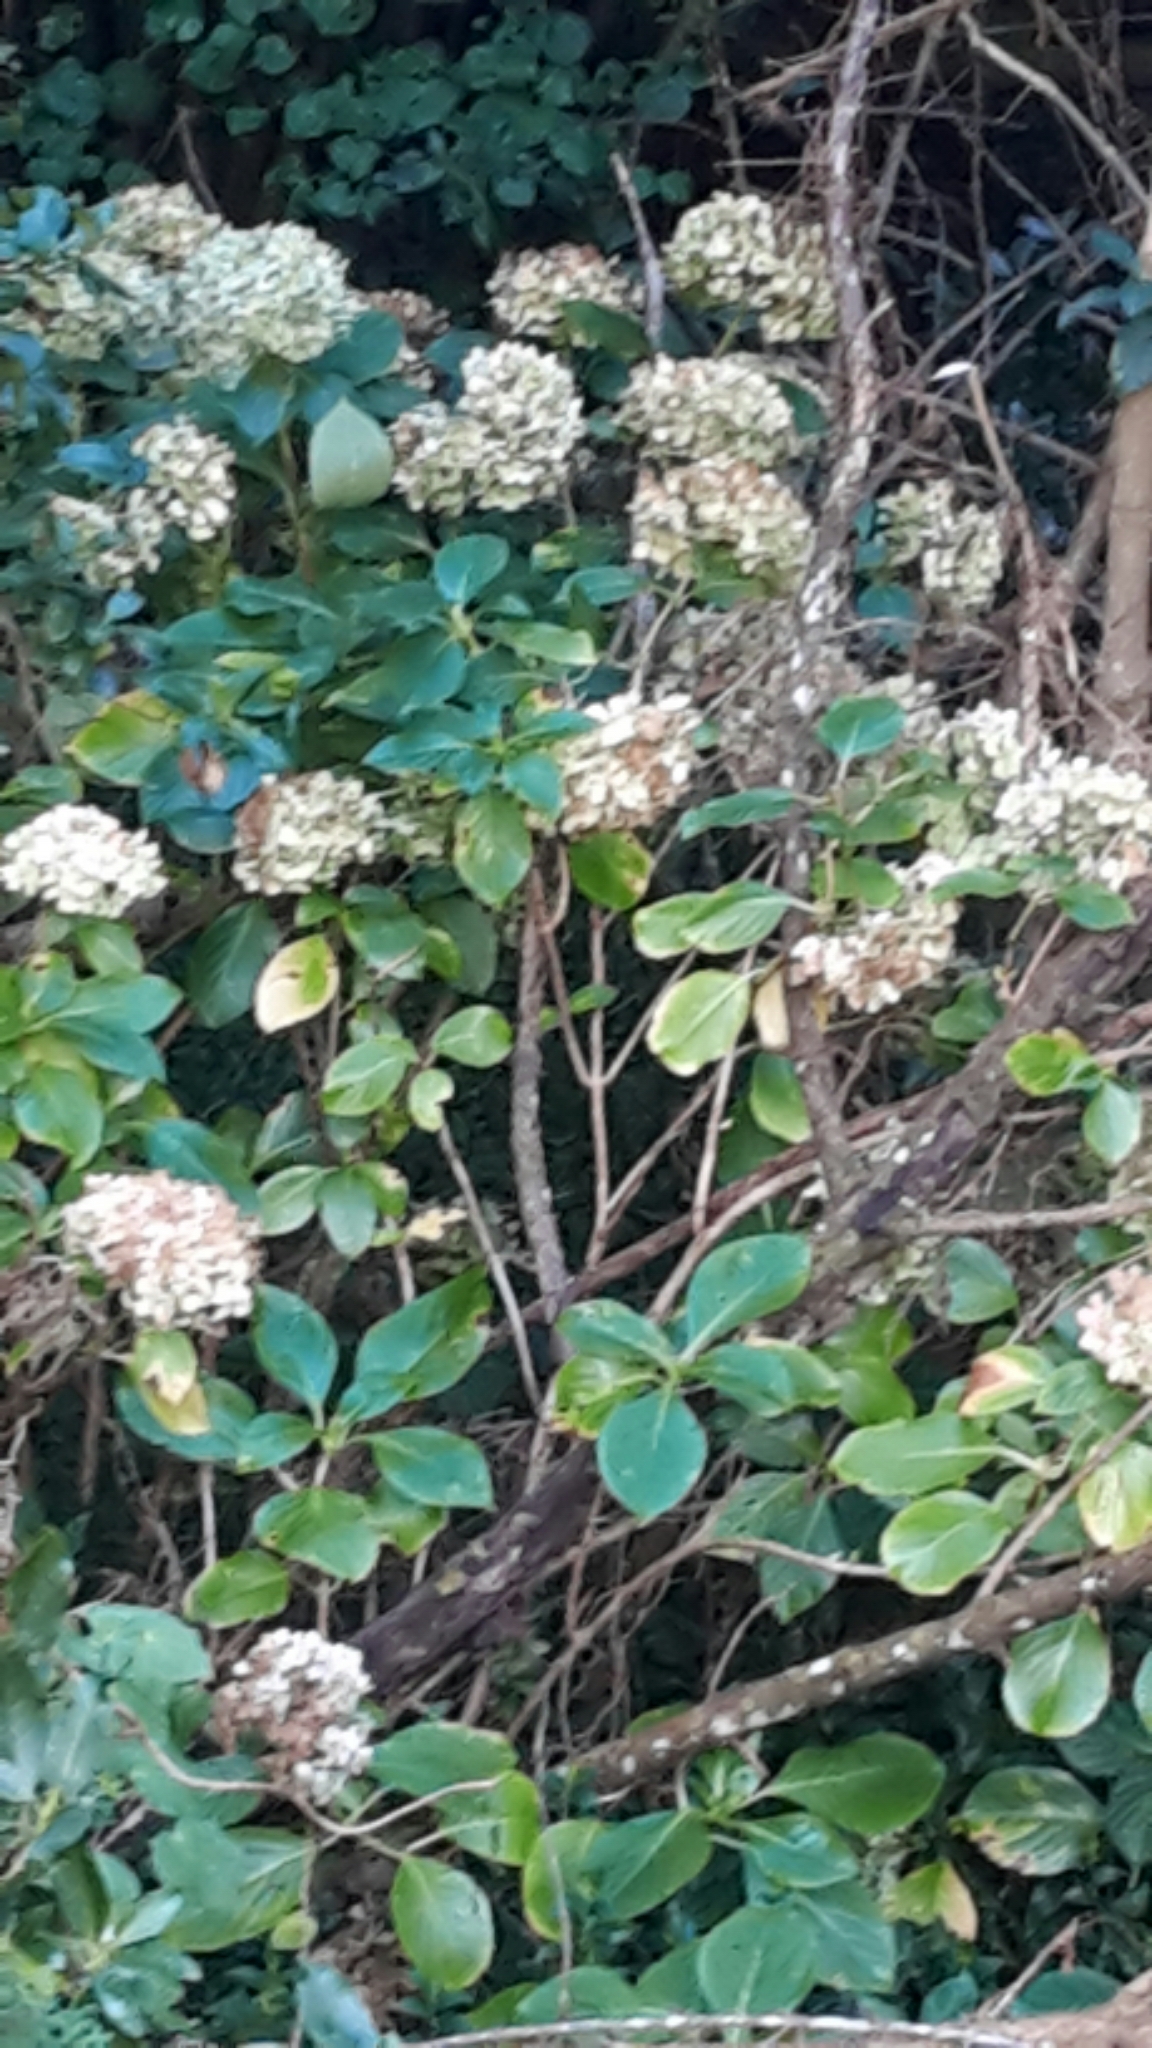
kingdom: Plantae
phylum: Tracheophyta
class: Magnoliopsida
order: Cornales
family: Hydrangeaceae
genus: Hydrangea
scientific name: Hydrangea macrophylla
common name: Hydrangea
